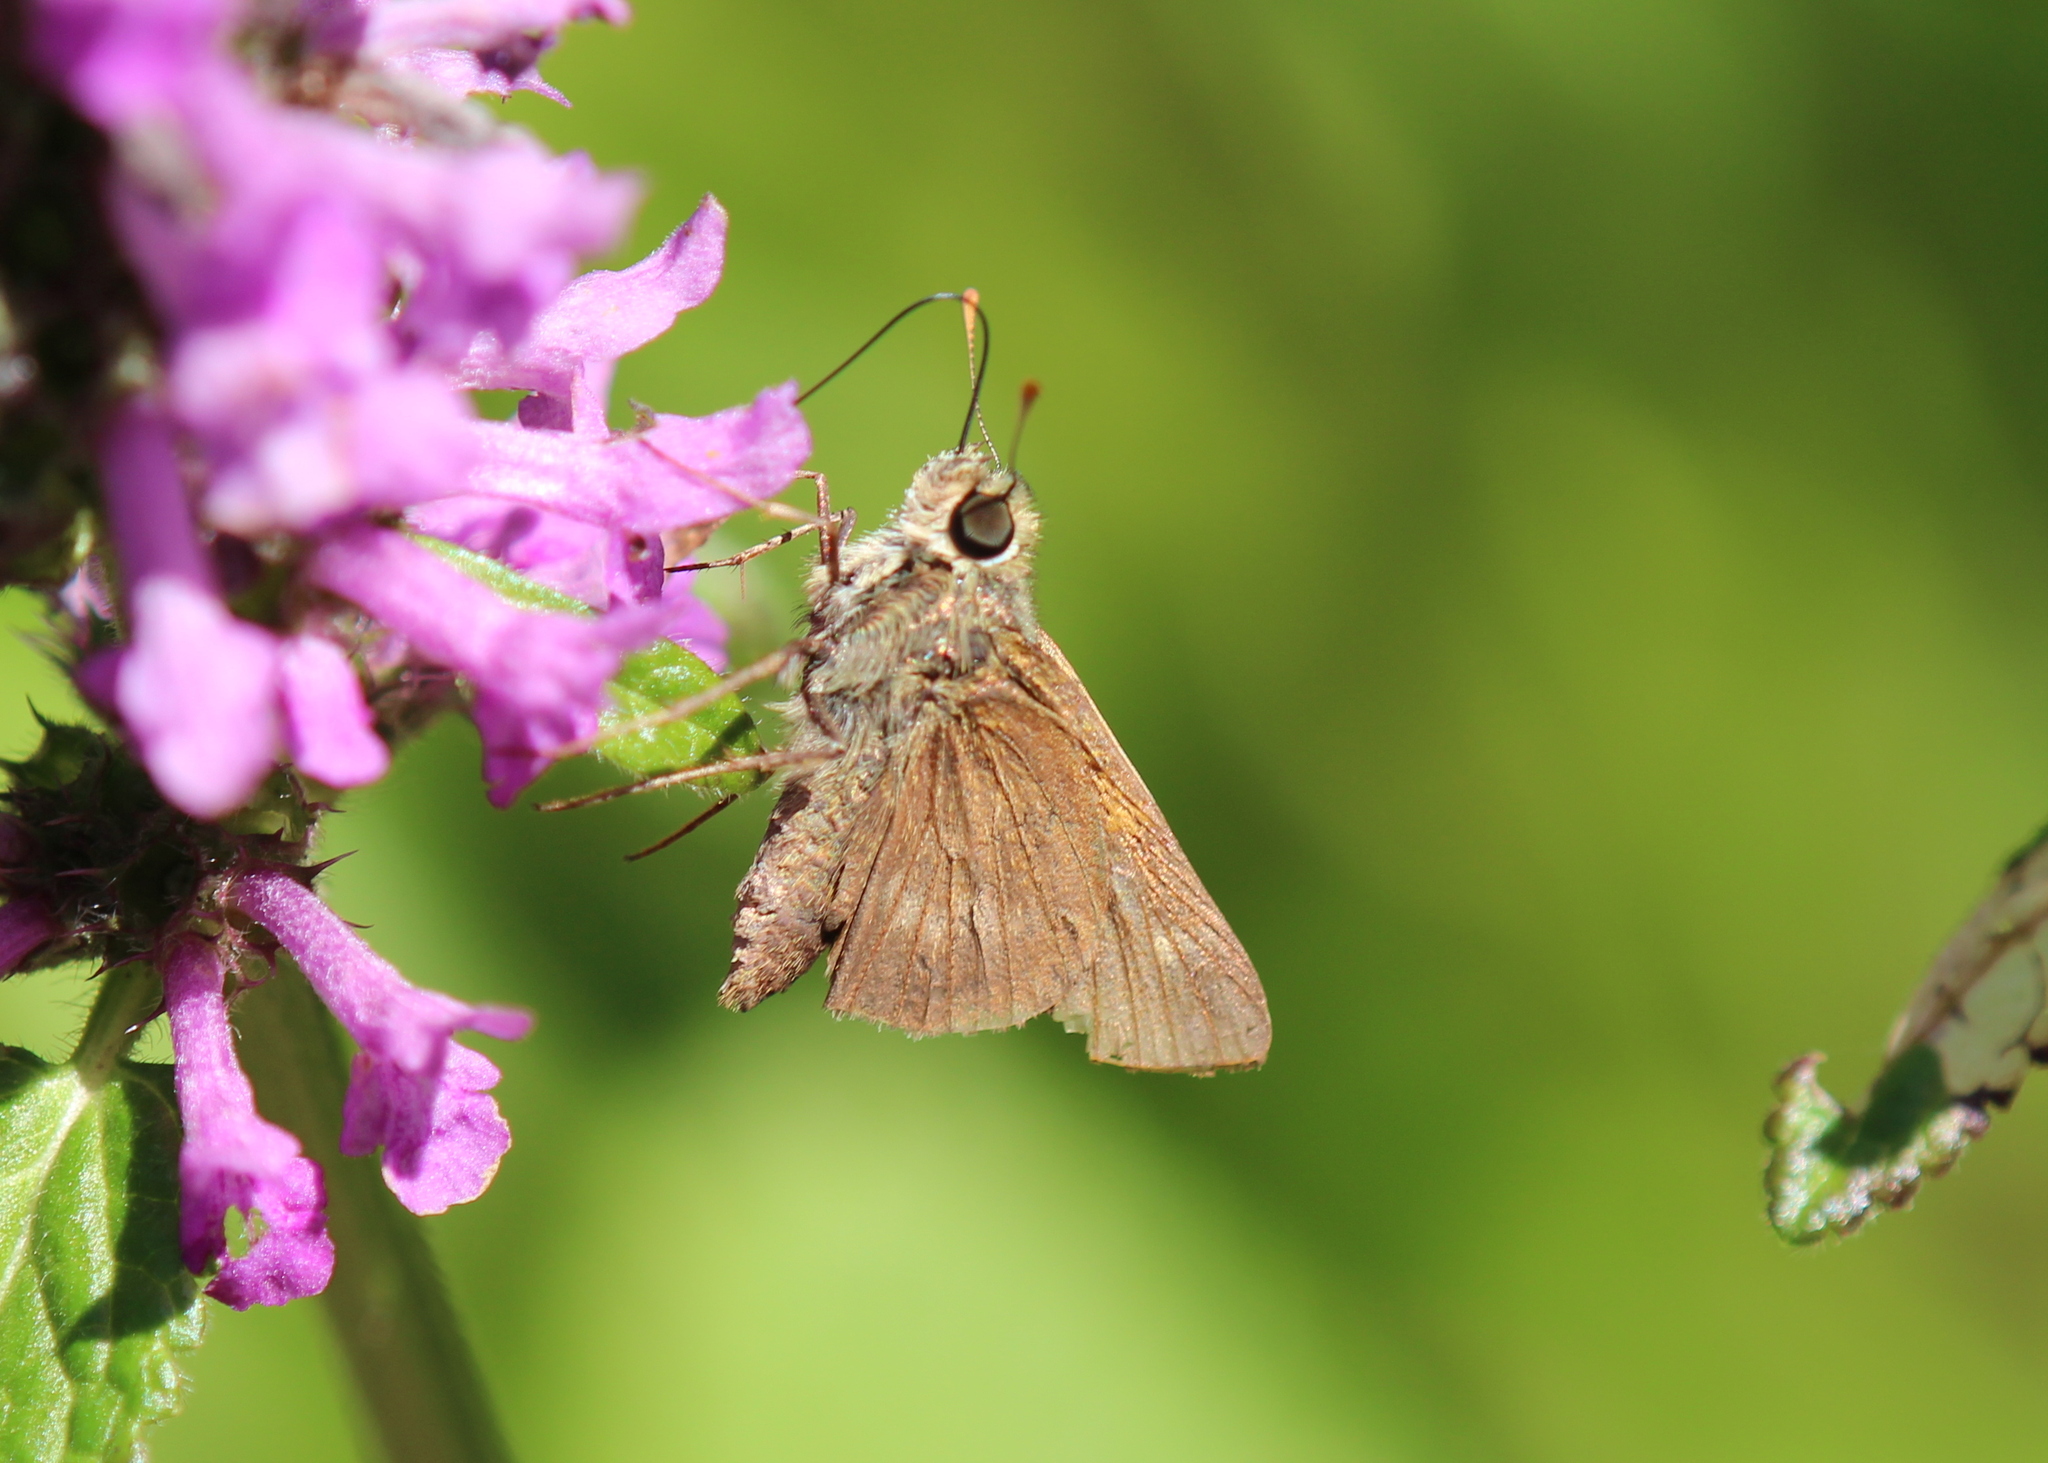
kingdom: Animalia
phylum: Arthropoda
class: Insecta
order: Lepidoptera
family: Hesperiidae
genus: Polites
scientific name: Polites egeremet
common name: Northern broken-dash
